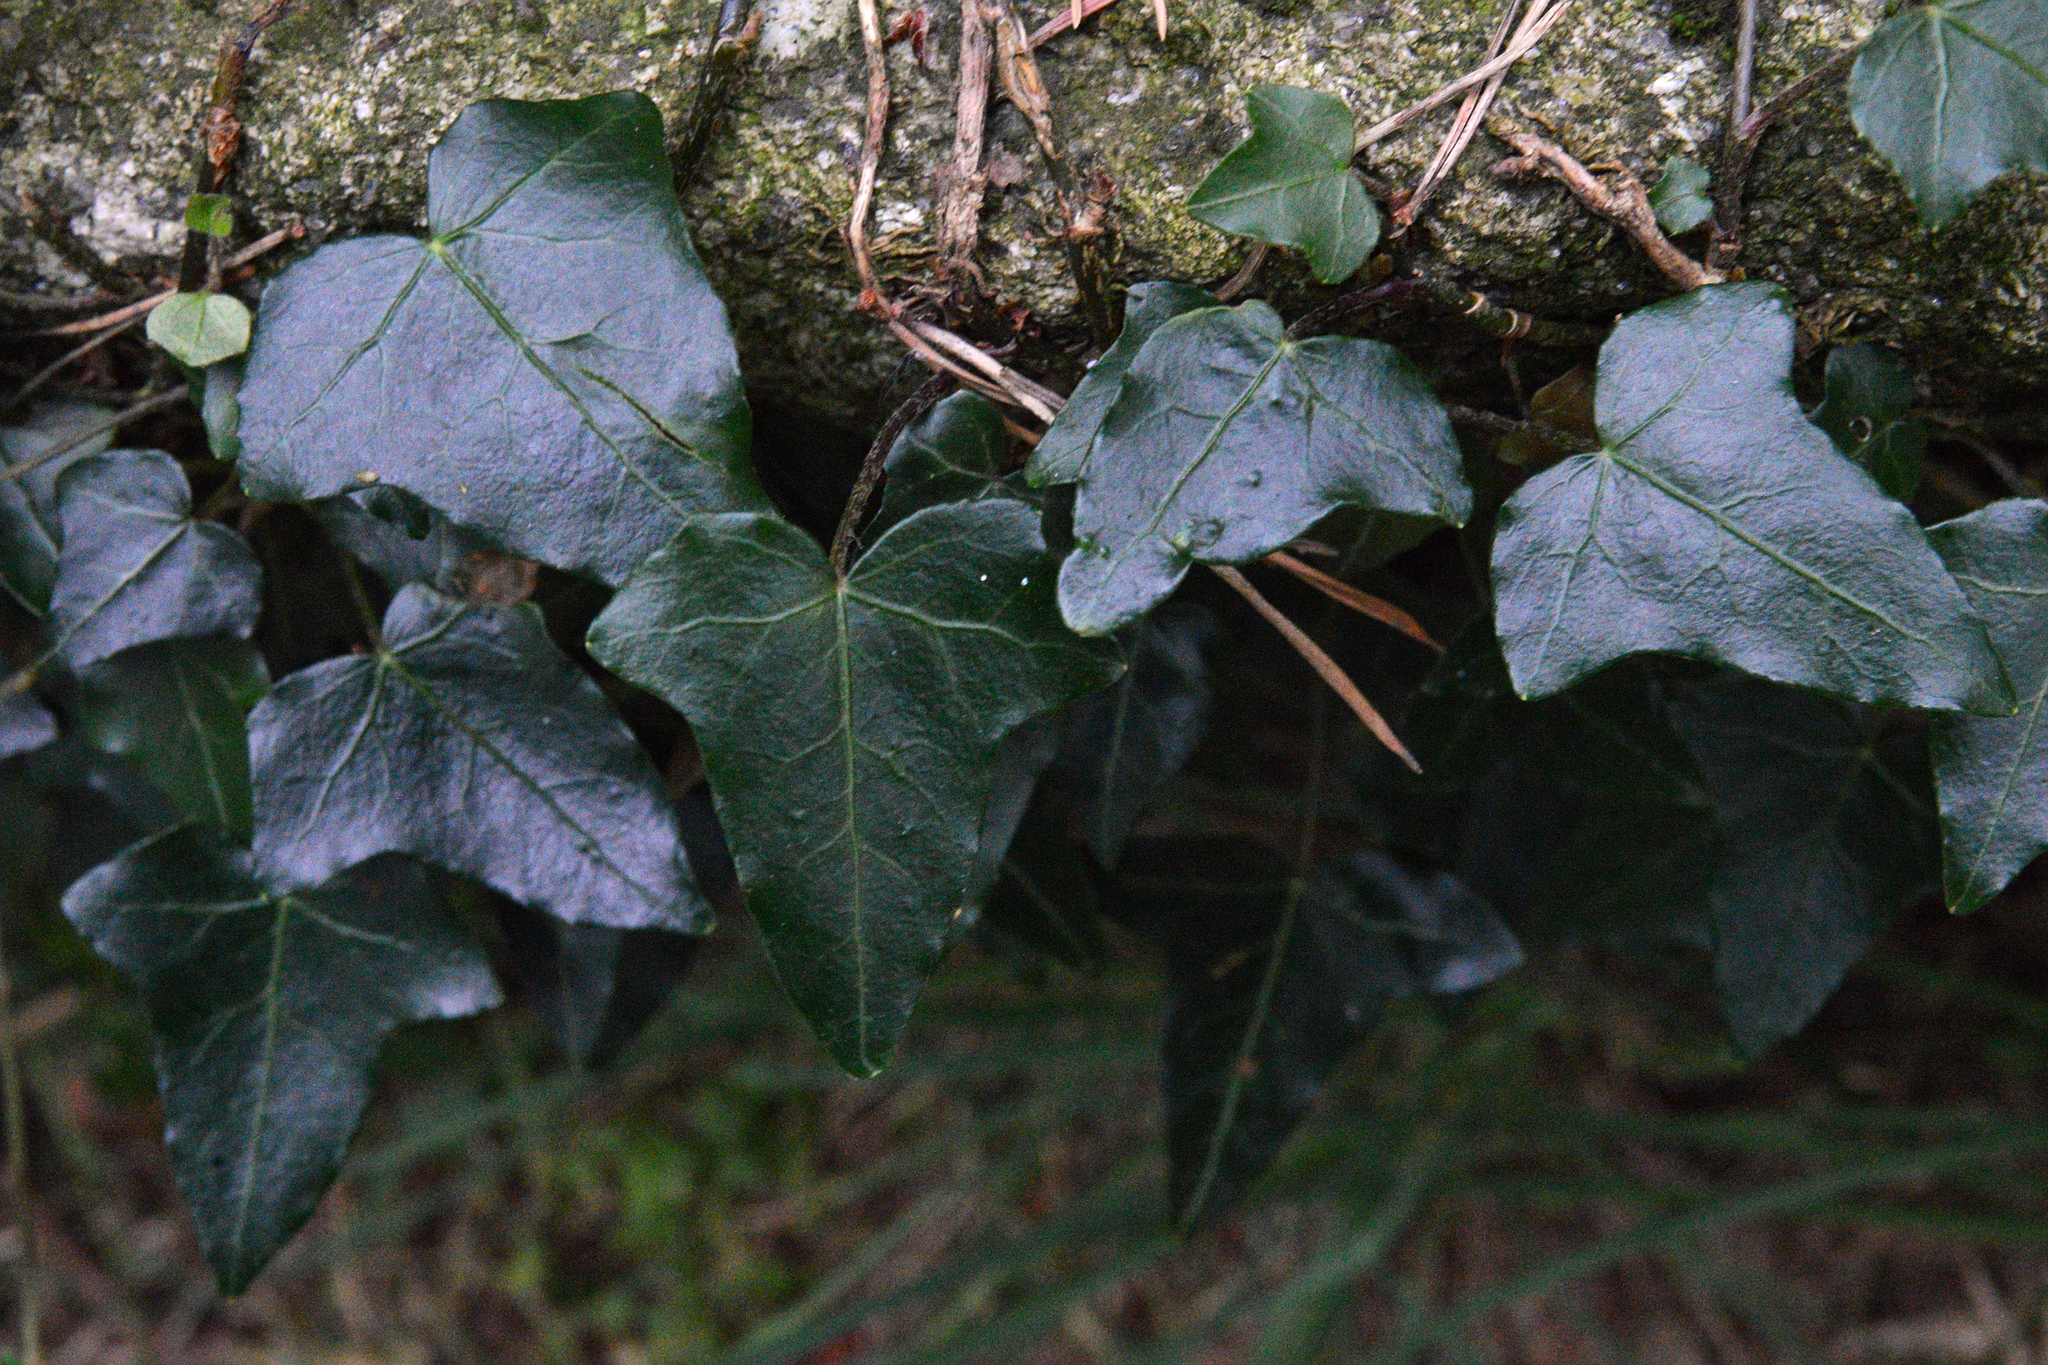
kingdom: Plantae
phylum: Tracheophyta
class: Magnoliopsida
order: Apiales
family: Araliaceae
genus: Hedera
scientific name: Hedera helix
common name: Ivy
